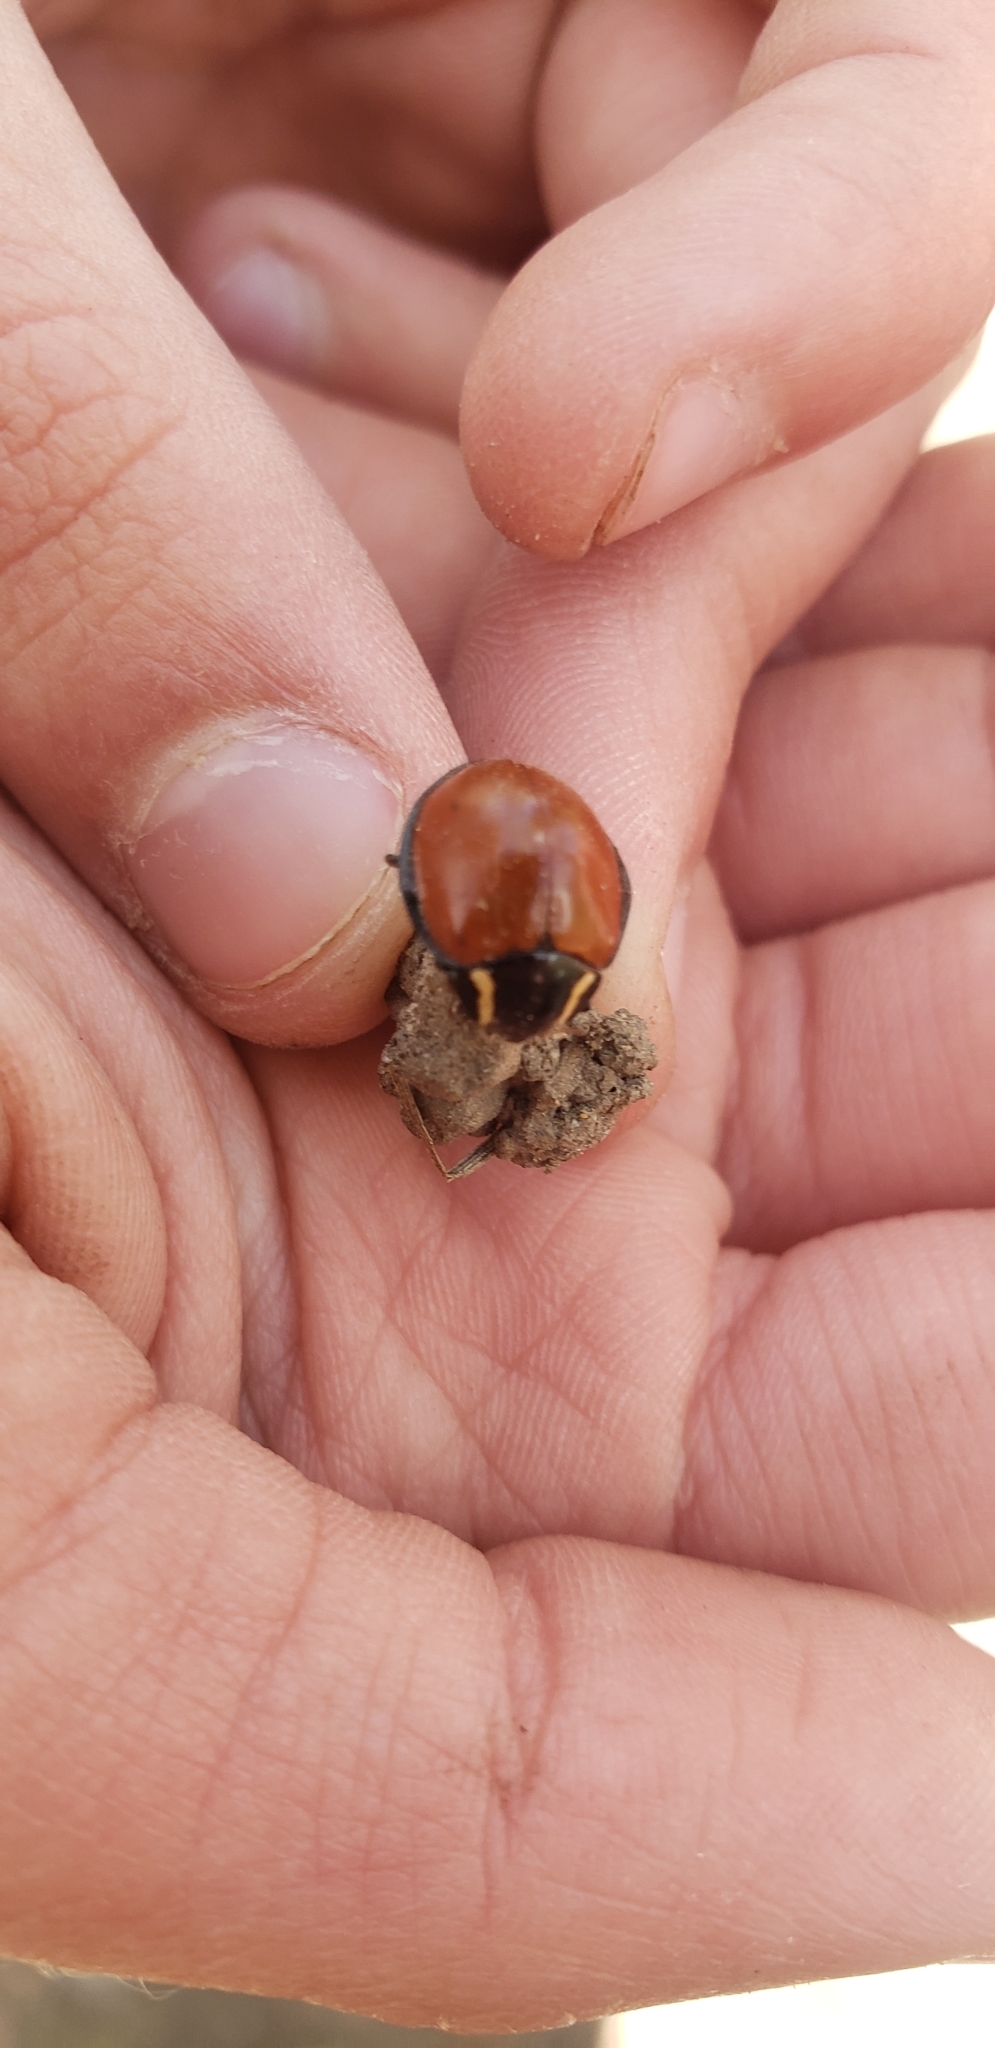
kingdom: Animalia
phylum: Arthropoda
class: Insecta
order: Coleoptera
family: Coccinellidae
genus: Anatis
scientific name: Anatis lecontei
